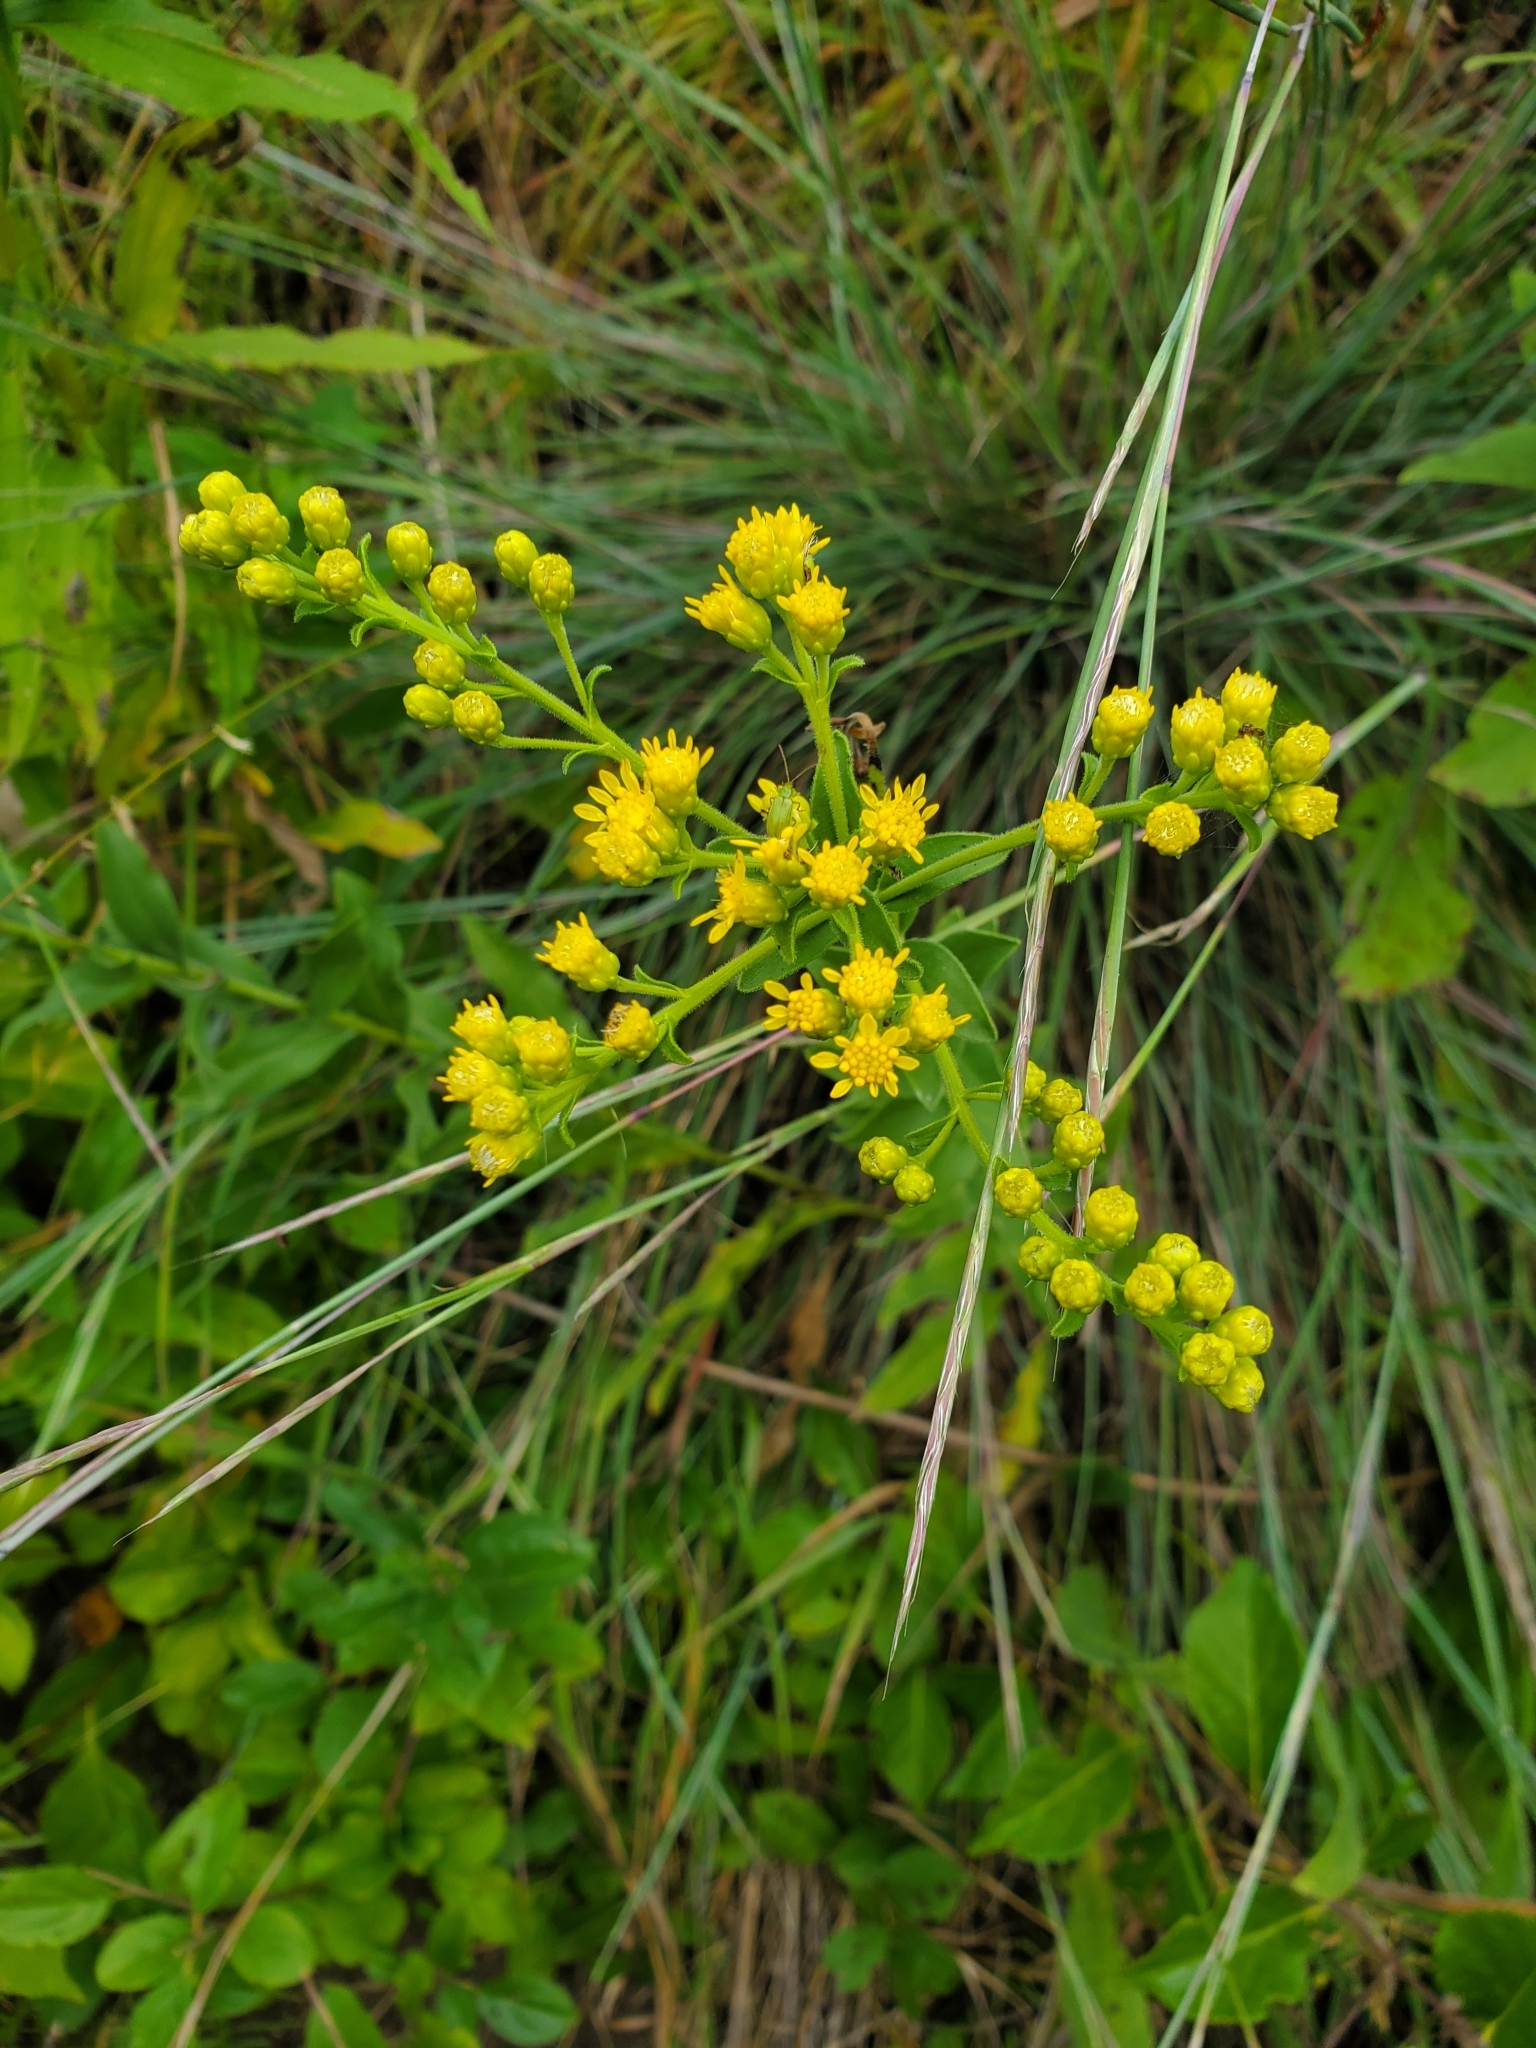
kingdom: Plantae
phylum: Tracheophyta
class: Magnoliopsida
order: Asterales
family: Asteraceae
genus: Solidago
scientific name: Solidago rigida
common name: Rigid goldenrod
